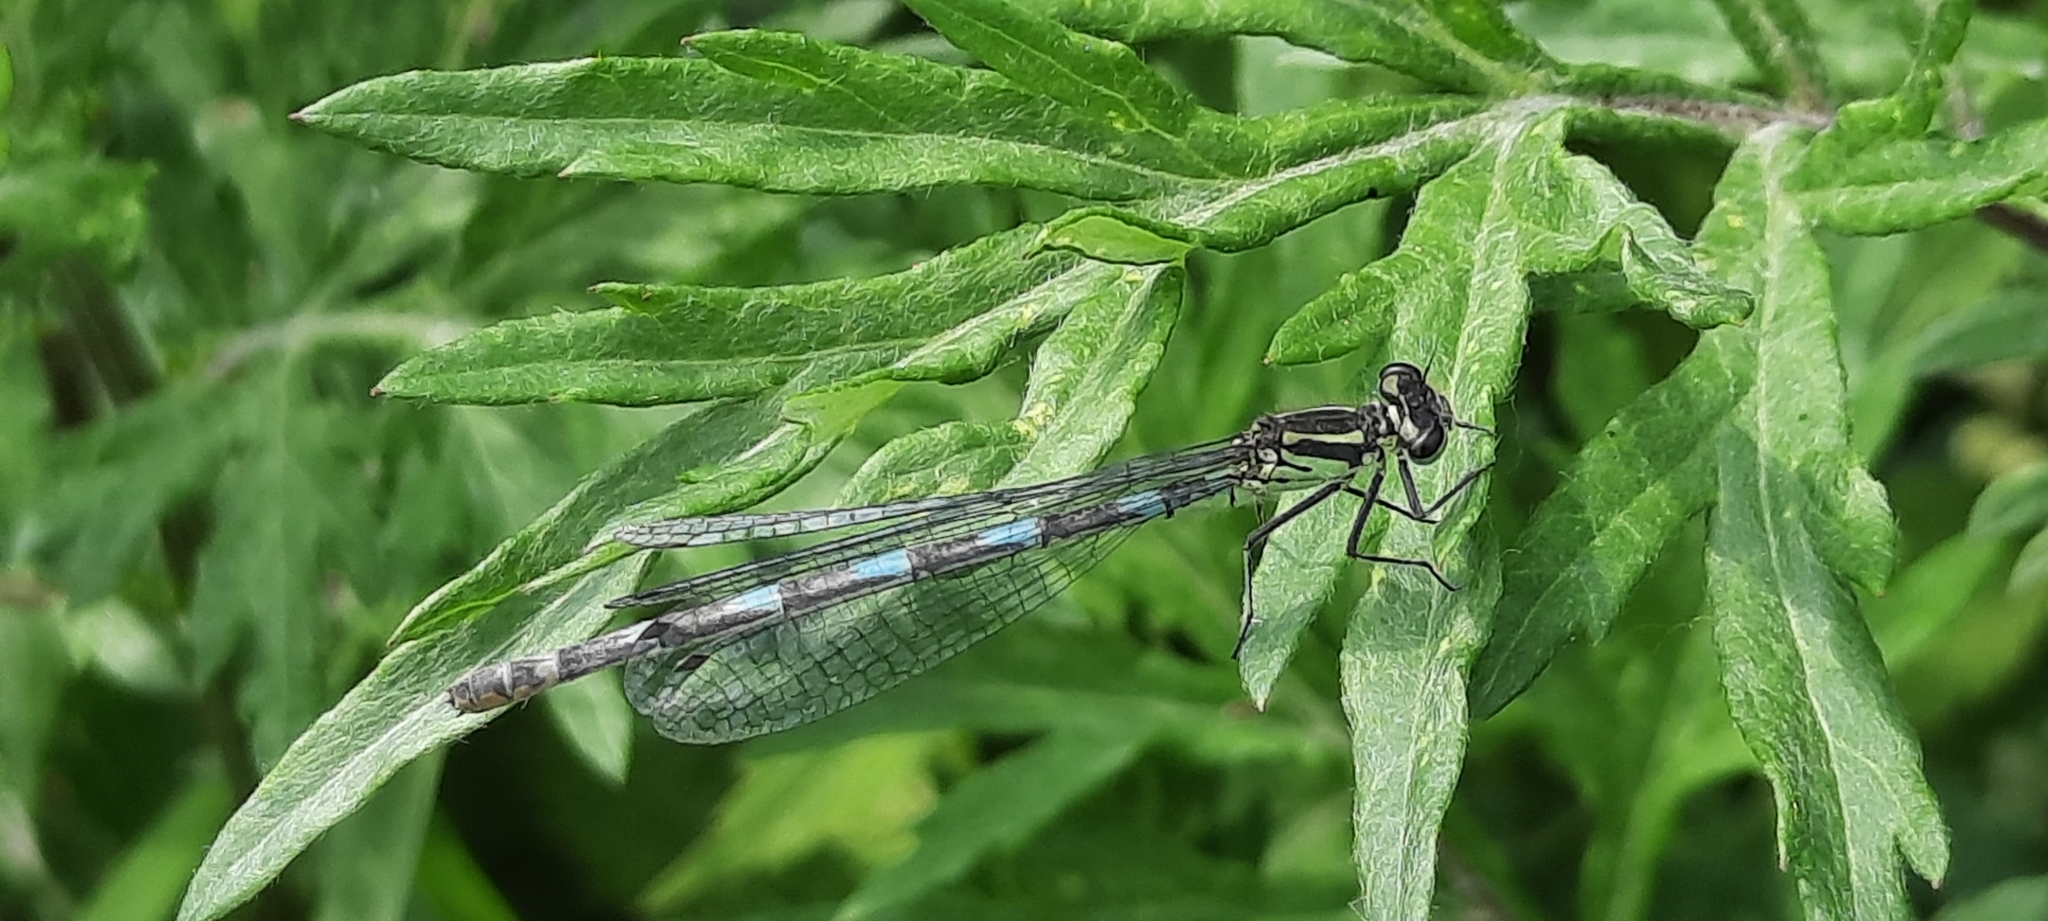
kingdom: Animalia
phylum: Arthropoda
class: Insecta
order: Odonata
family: Coenagrionidae
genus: Coenagrion
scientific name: Coenagrion pulchellum
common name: Variable bluet
